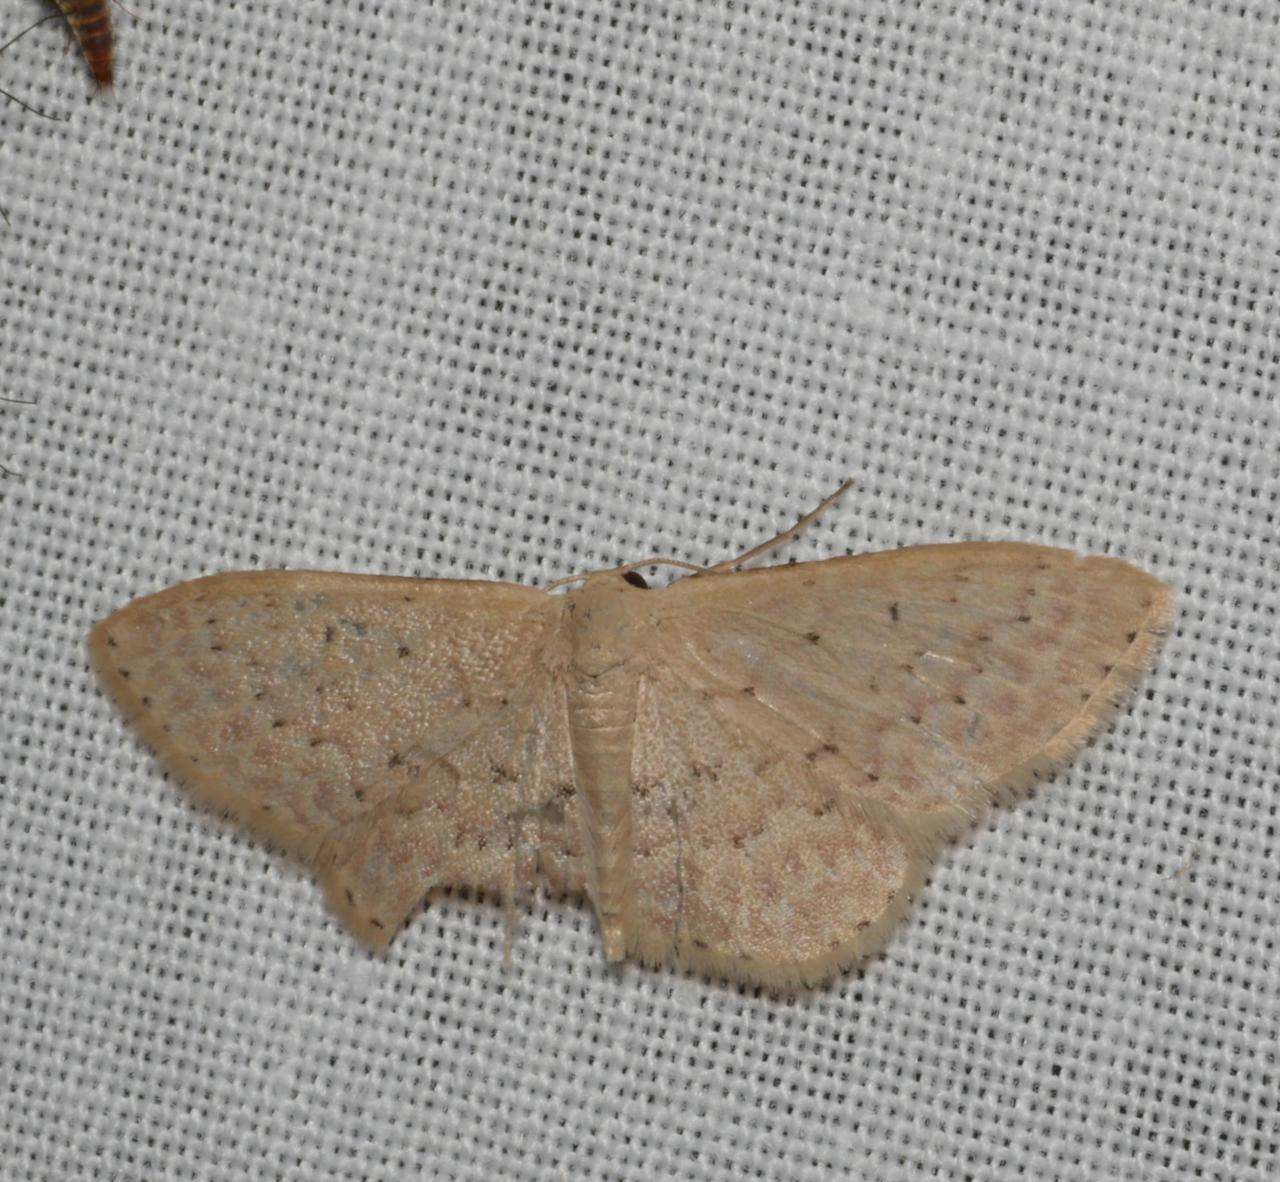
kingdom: Animalia
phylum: Arthropoda
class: Insecta
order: Lepidoptera
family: Geometridae
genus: Idaea
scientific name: Idaea philocosma
